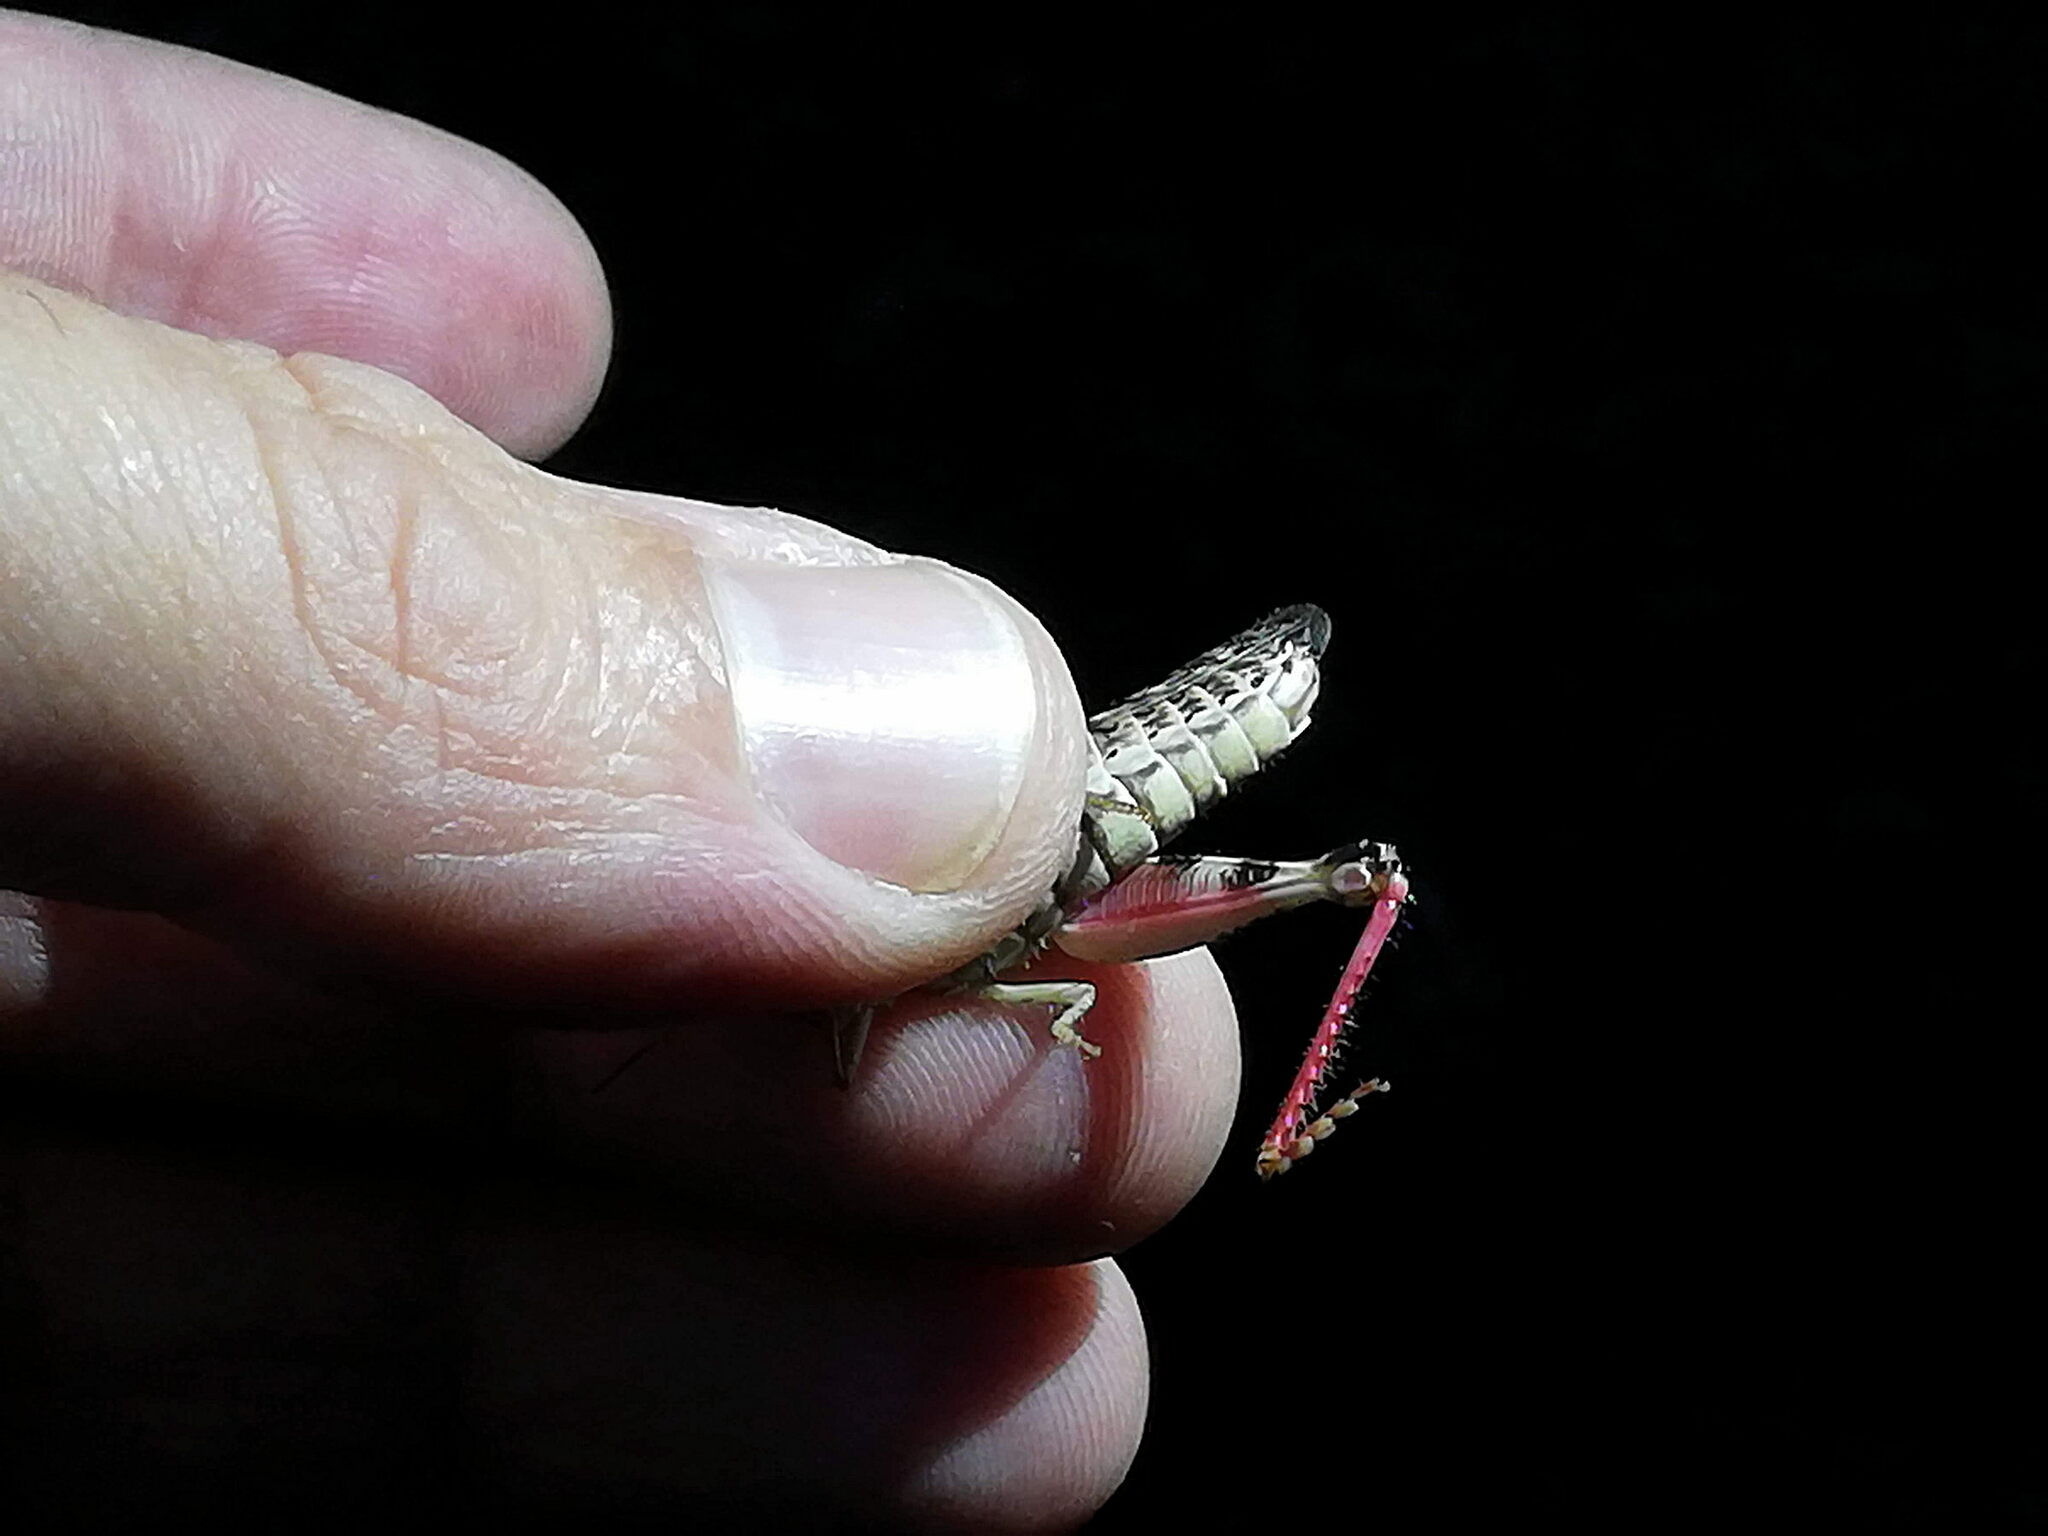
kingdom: Animalia
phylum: Arthropoda
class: Insecta
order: Orthoptera
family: Acrididae
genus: Calliptamus
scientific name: Calliptamus italicus
